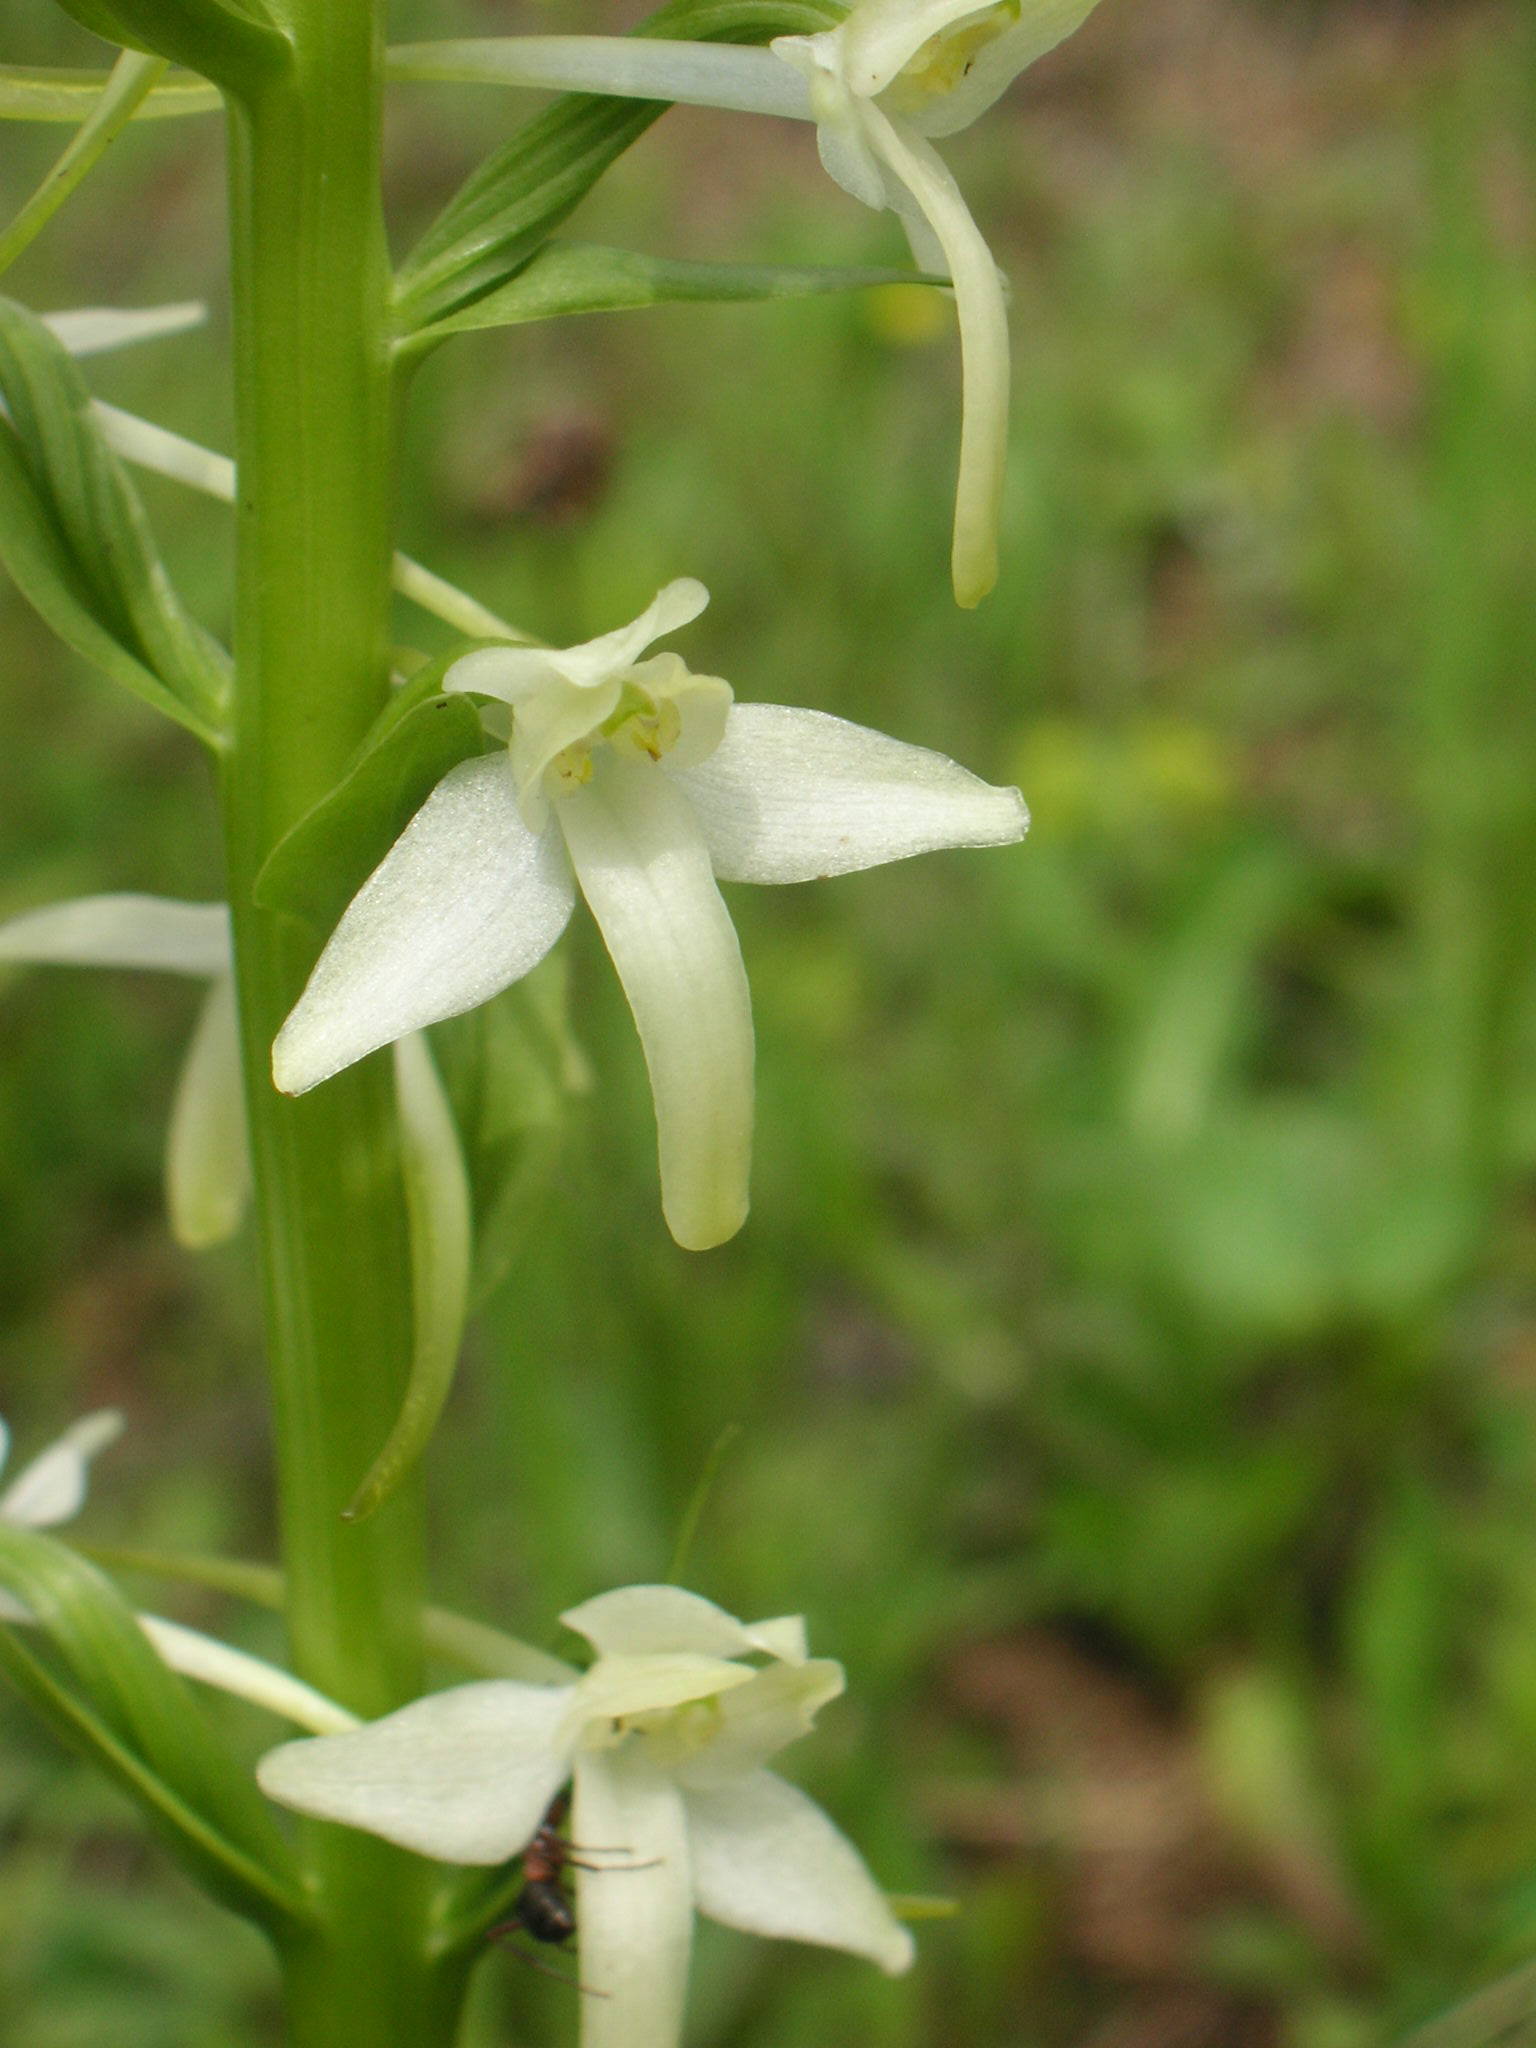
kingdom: Plantae
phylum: Tracheophyta
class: Liliopsida
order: Asparagales
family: Orchidaceae
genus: Platanthera
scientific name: Platanthera bifolia
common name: Lesser butterfly-orchid
